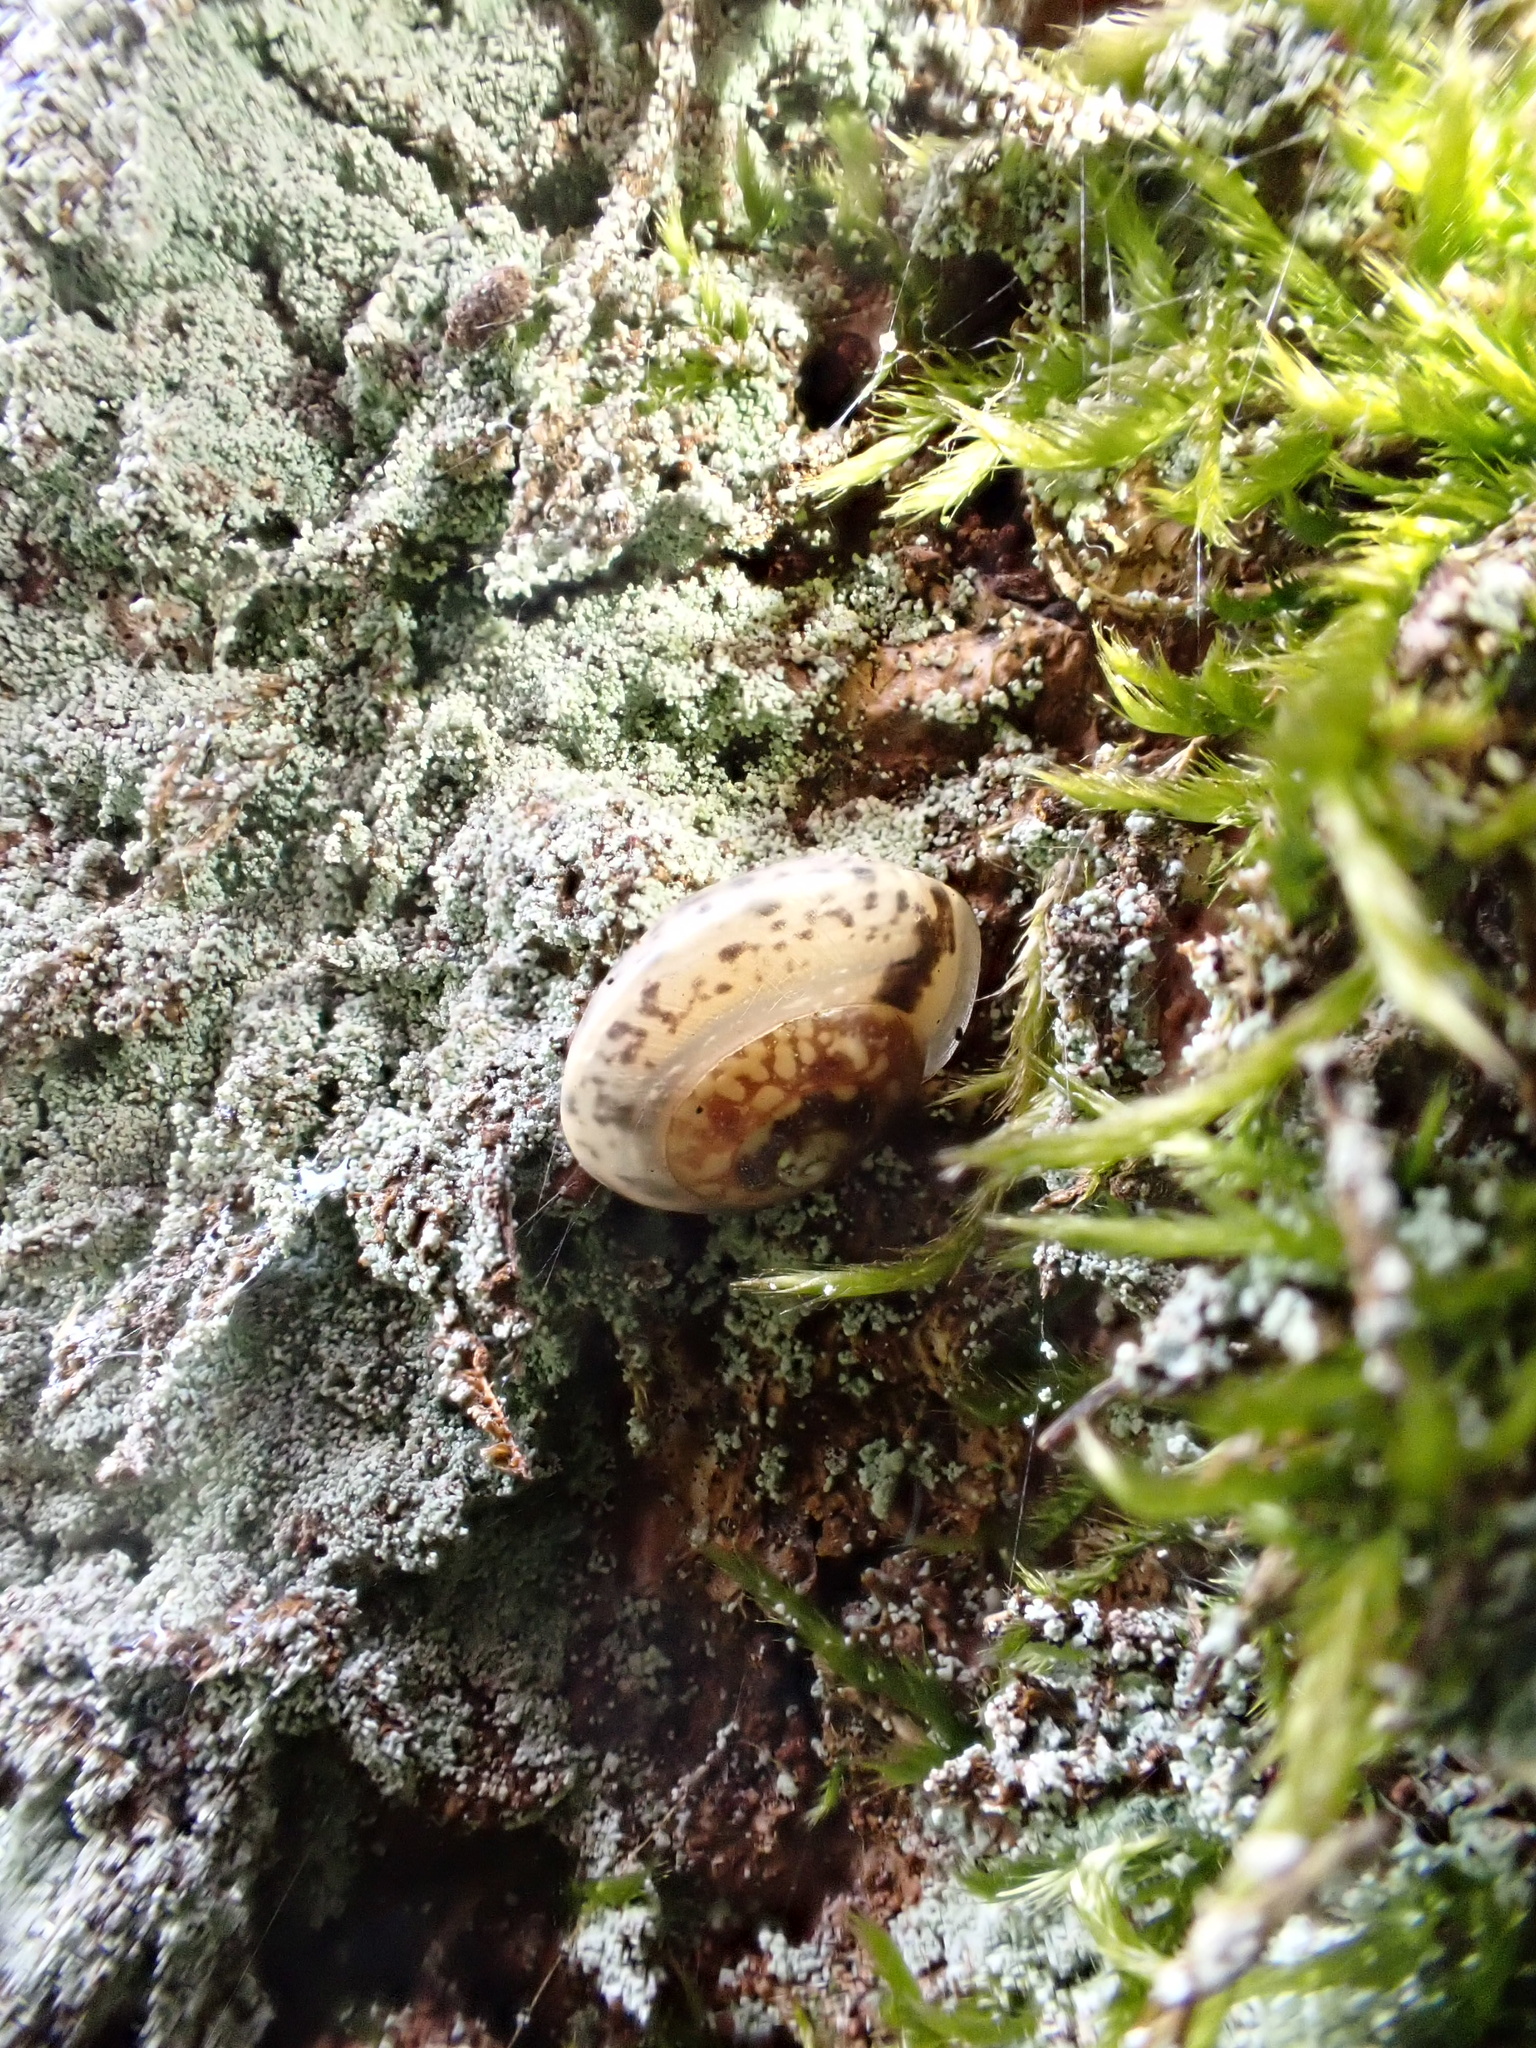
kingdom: Animalia
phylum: Mollusca
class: Gastropoda
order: Stylommatophora
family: Hygromiidae
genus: Hygromia
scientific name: Hygromia cinctella
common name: Girdled snail
